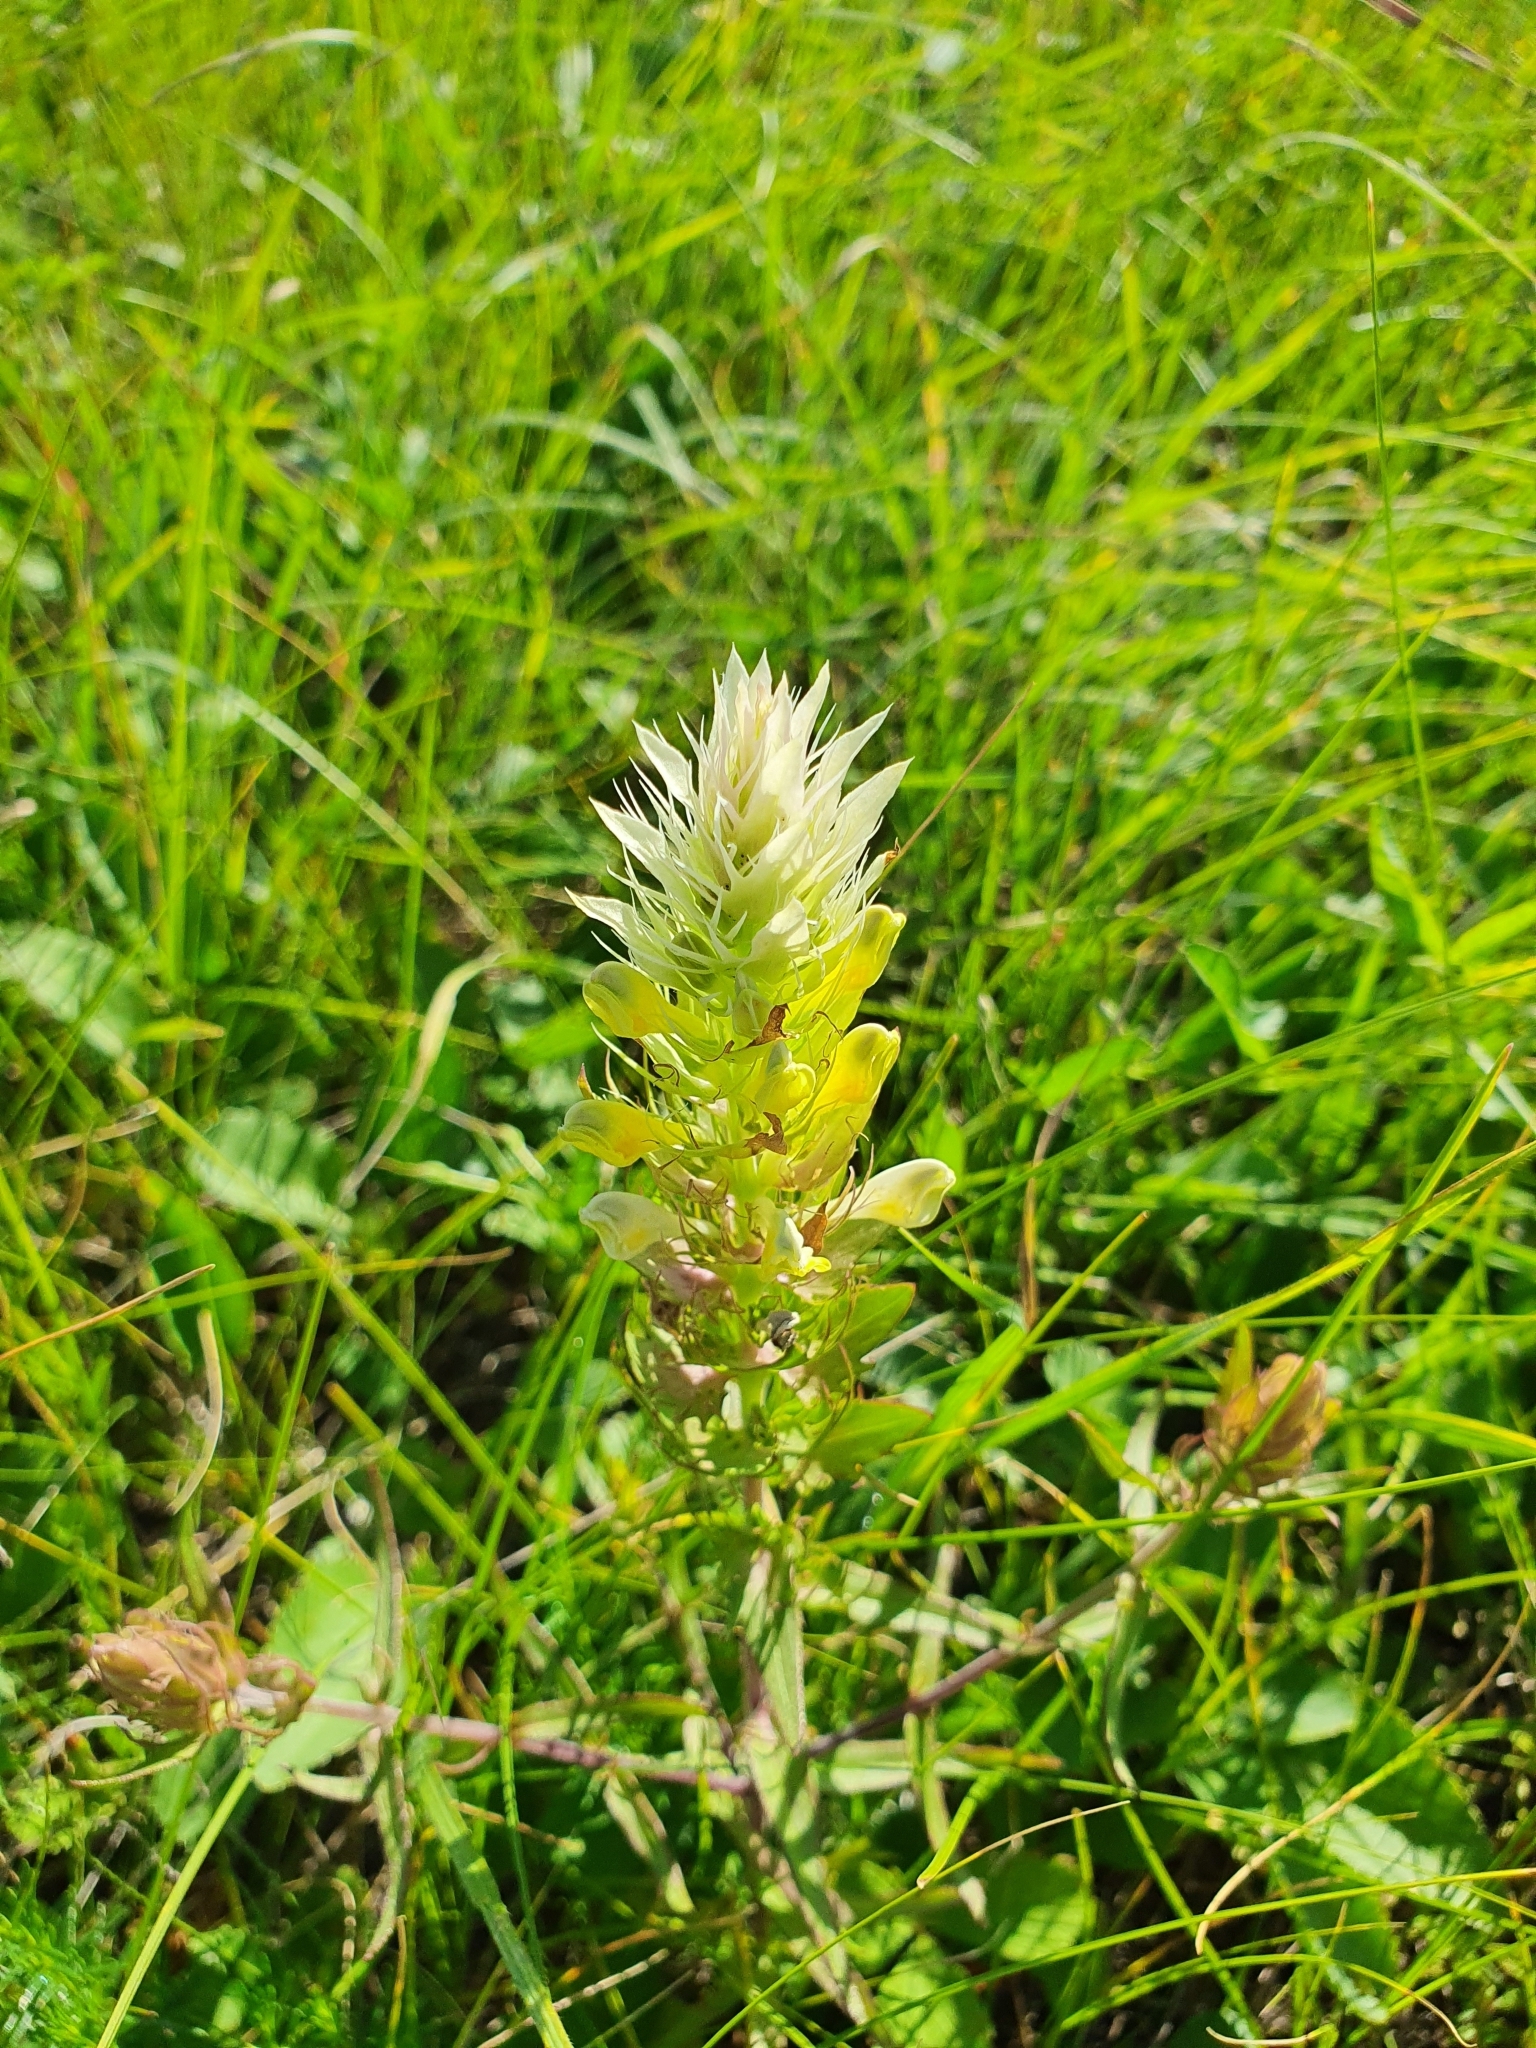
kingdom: Plantae
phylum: Tracheophyta
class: Magnoliopsida
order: Lamiales
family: Orobanchaceae
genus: Melampyrum
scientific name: Melampyrum arvense
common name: Field cow-wheat
